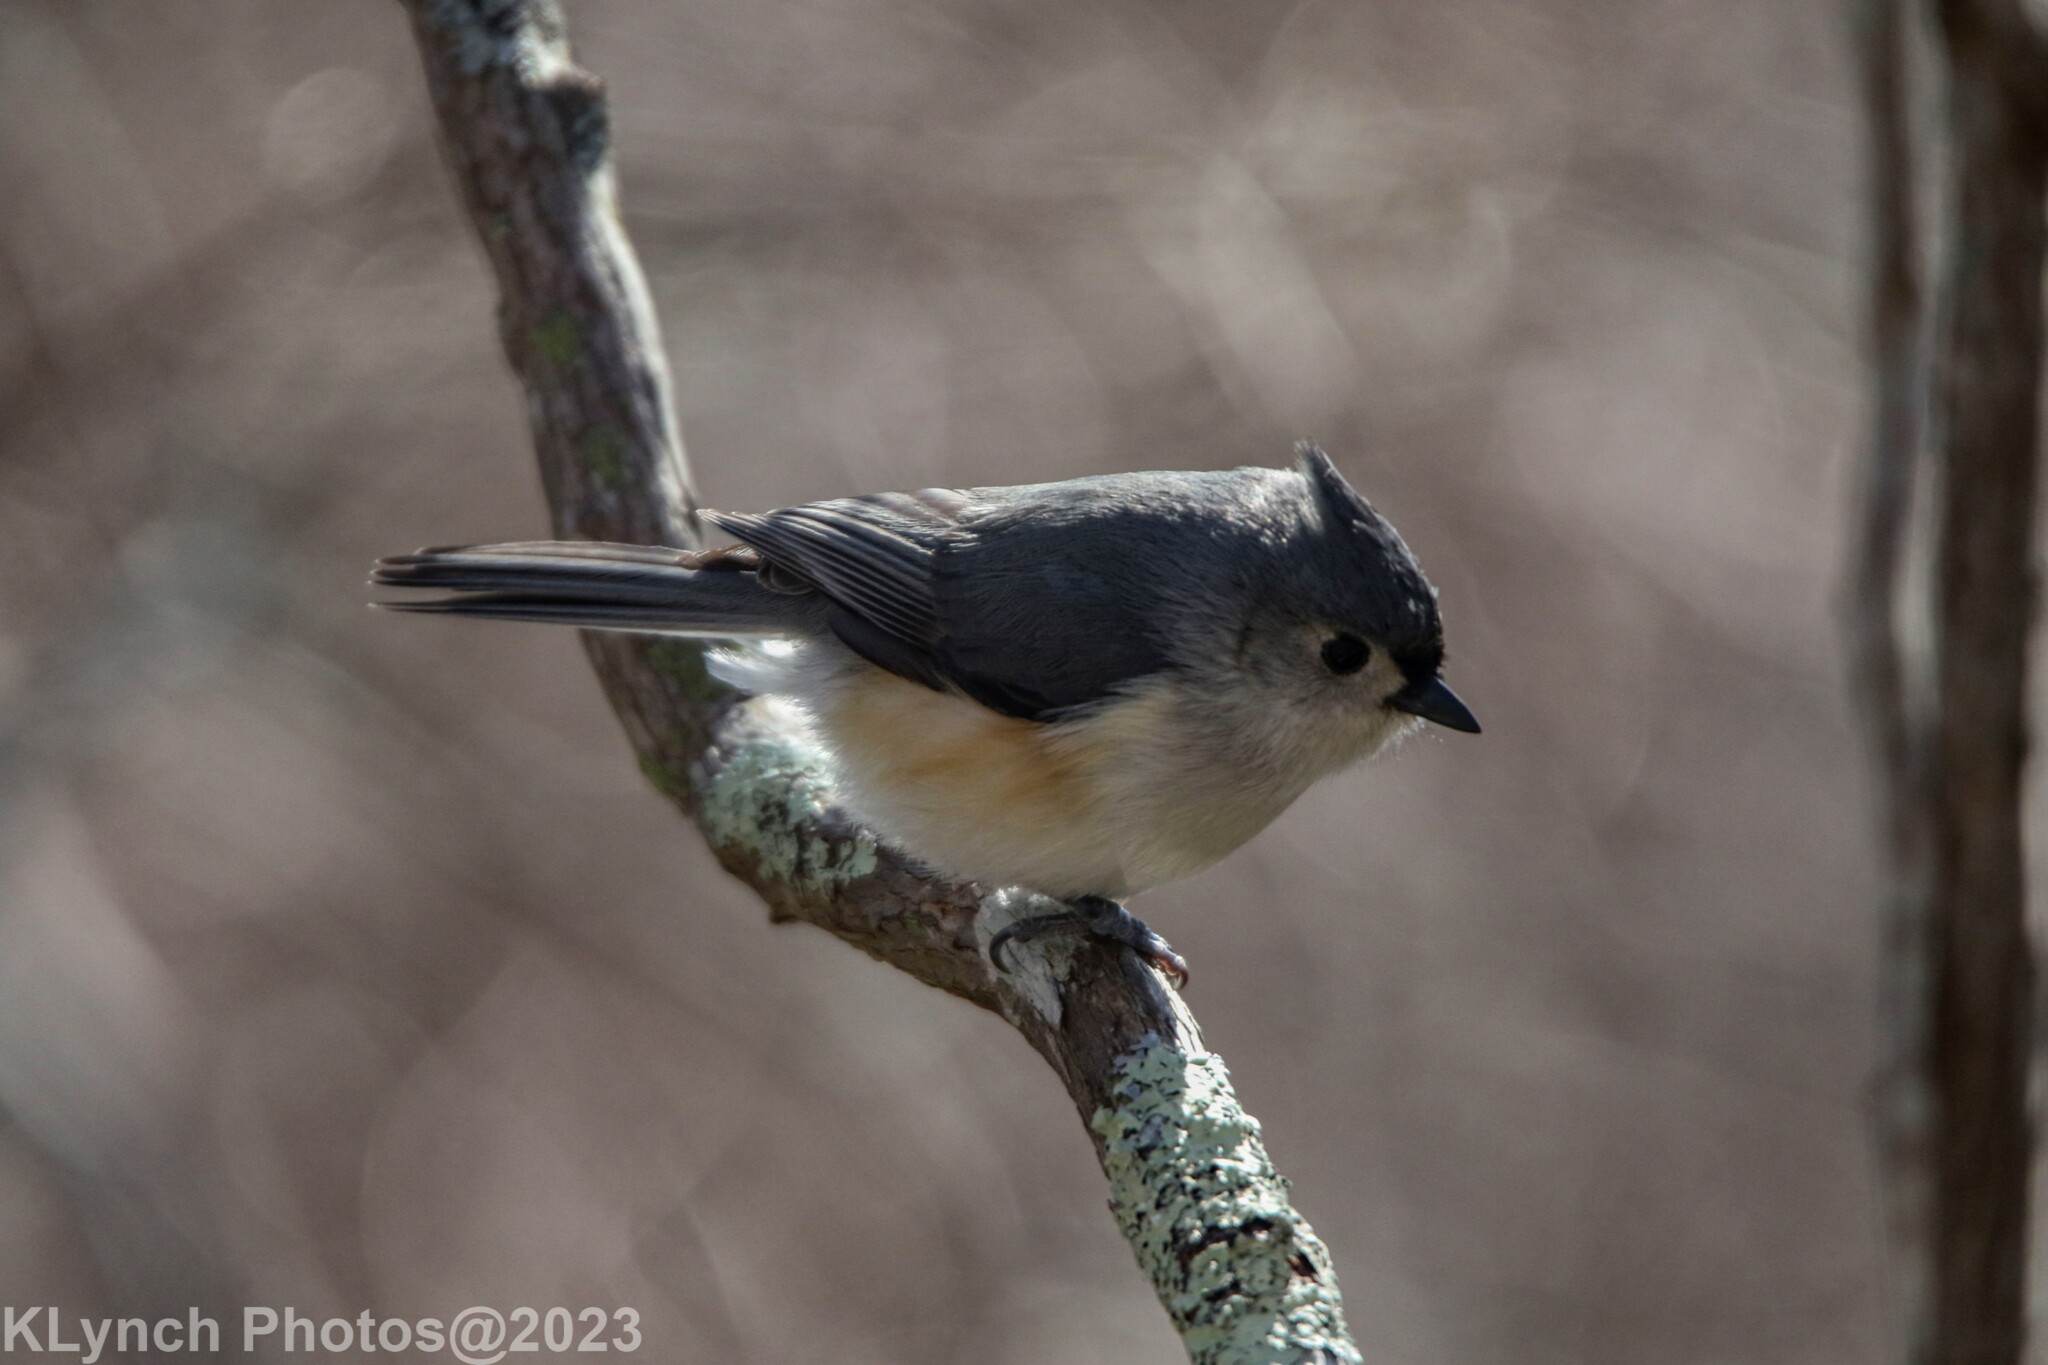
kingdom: Animalia
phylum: Chordata
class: Aves
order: Passeriformes
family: Paridae
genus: Baeolophus
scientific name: Baeolophus bicolor
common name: Tufted titmouse
